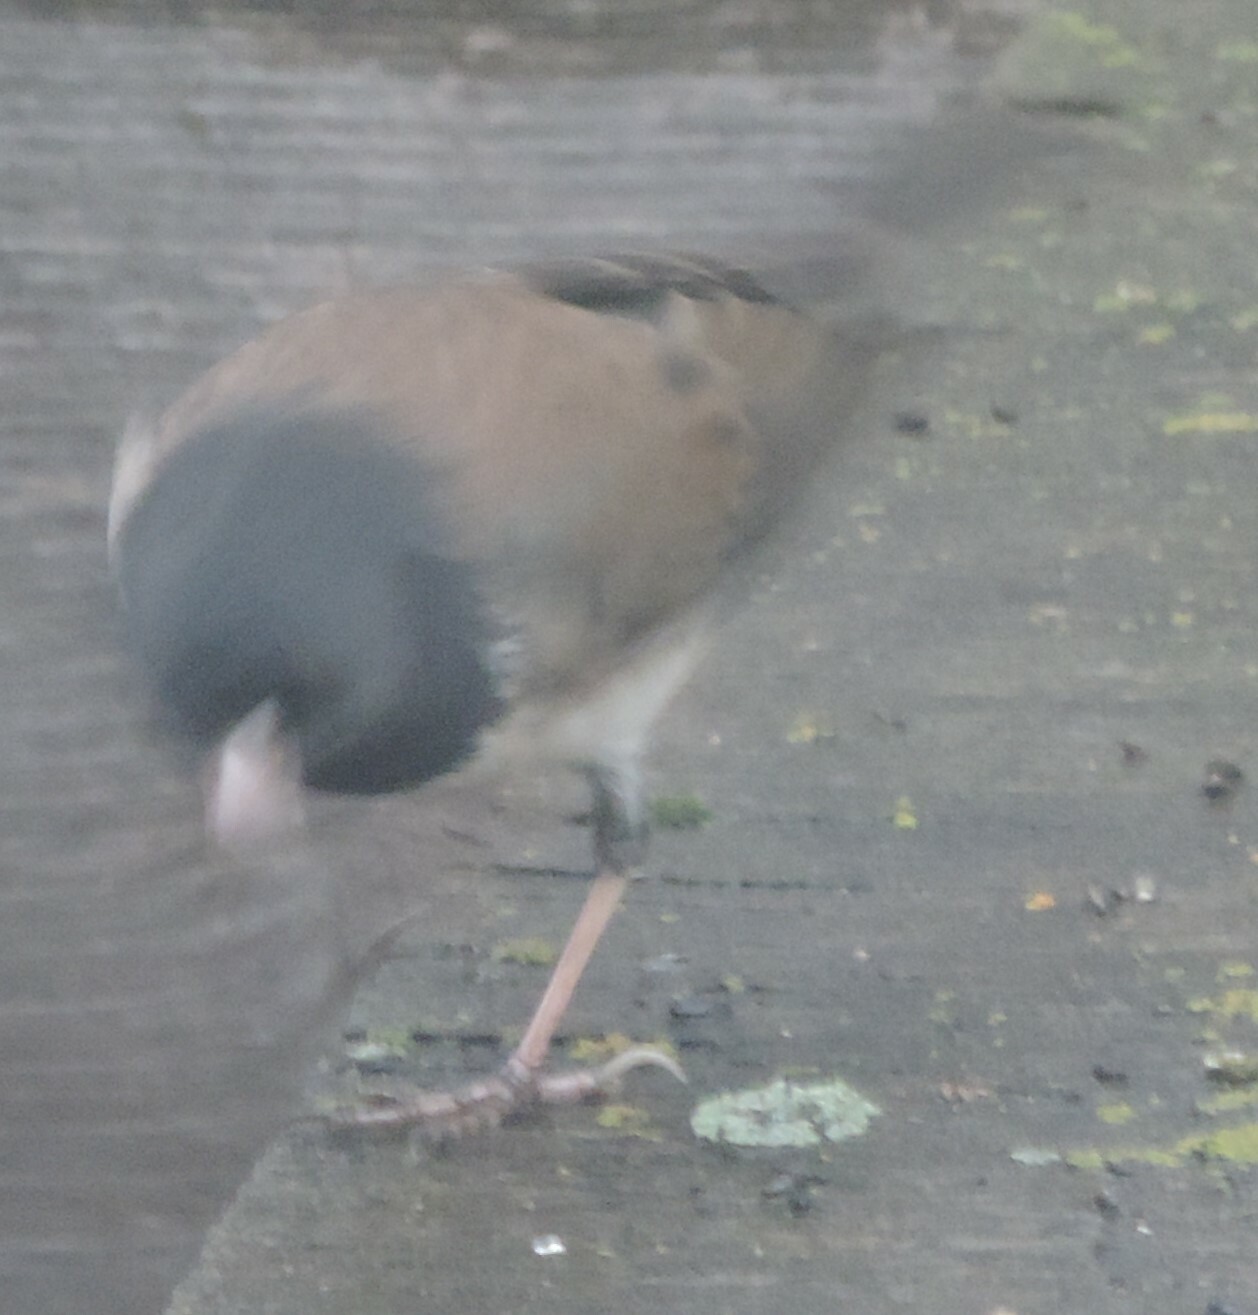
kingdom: Animalia
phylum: Chordata
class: Aves
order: Passeriformes
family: Passerellidae
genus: Junco
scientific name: Junco hyemalis
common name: Dark-eyed junco
